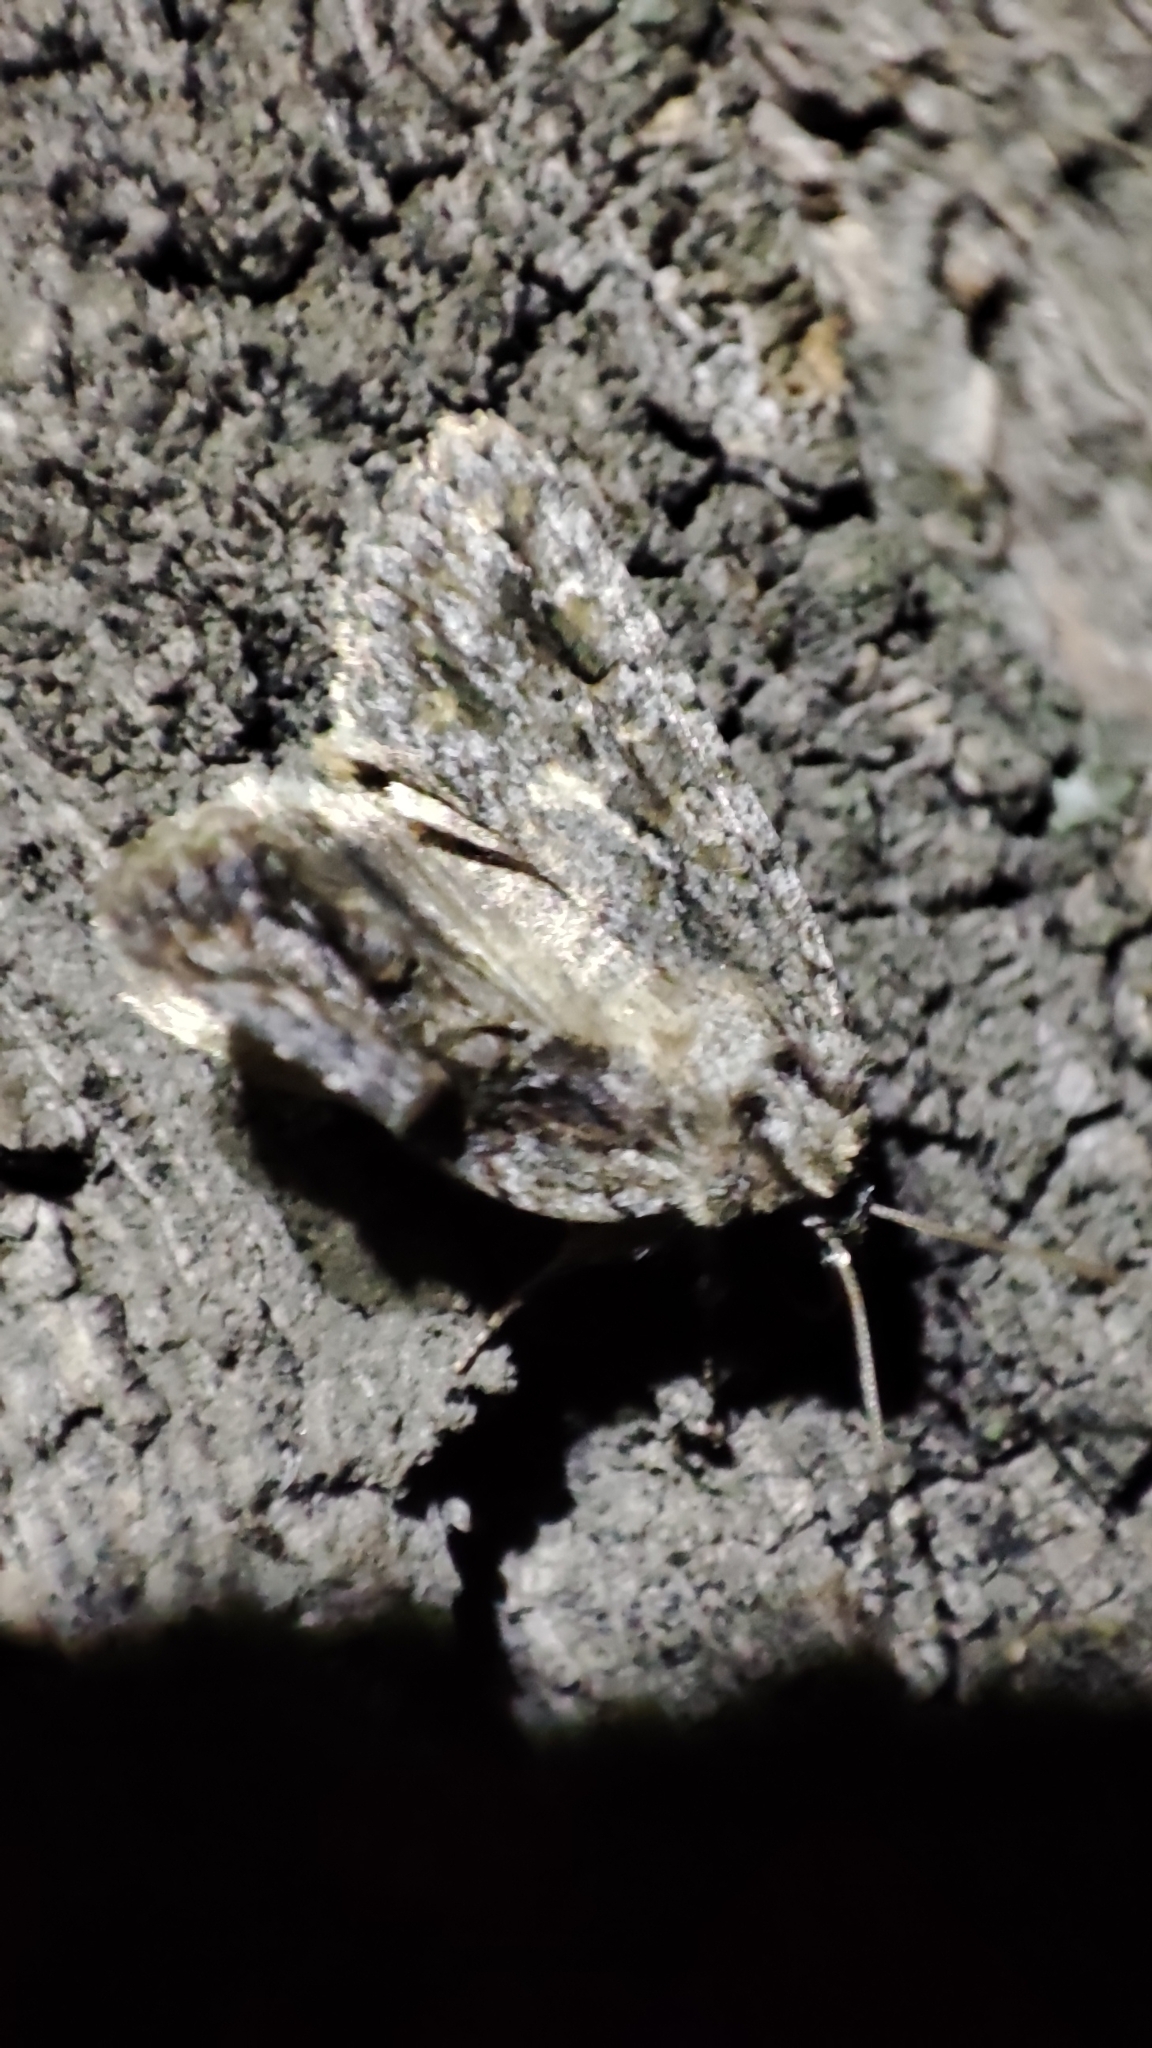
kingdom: Animalia
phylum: Arthropoda
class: Insecta
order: Lepidoptera
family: Noctuidae
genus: Phidrimana
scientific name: Phidrimana amurensis
